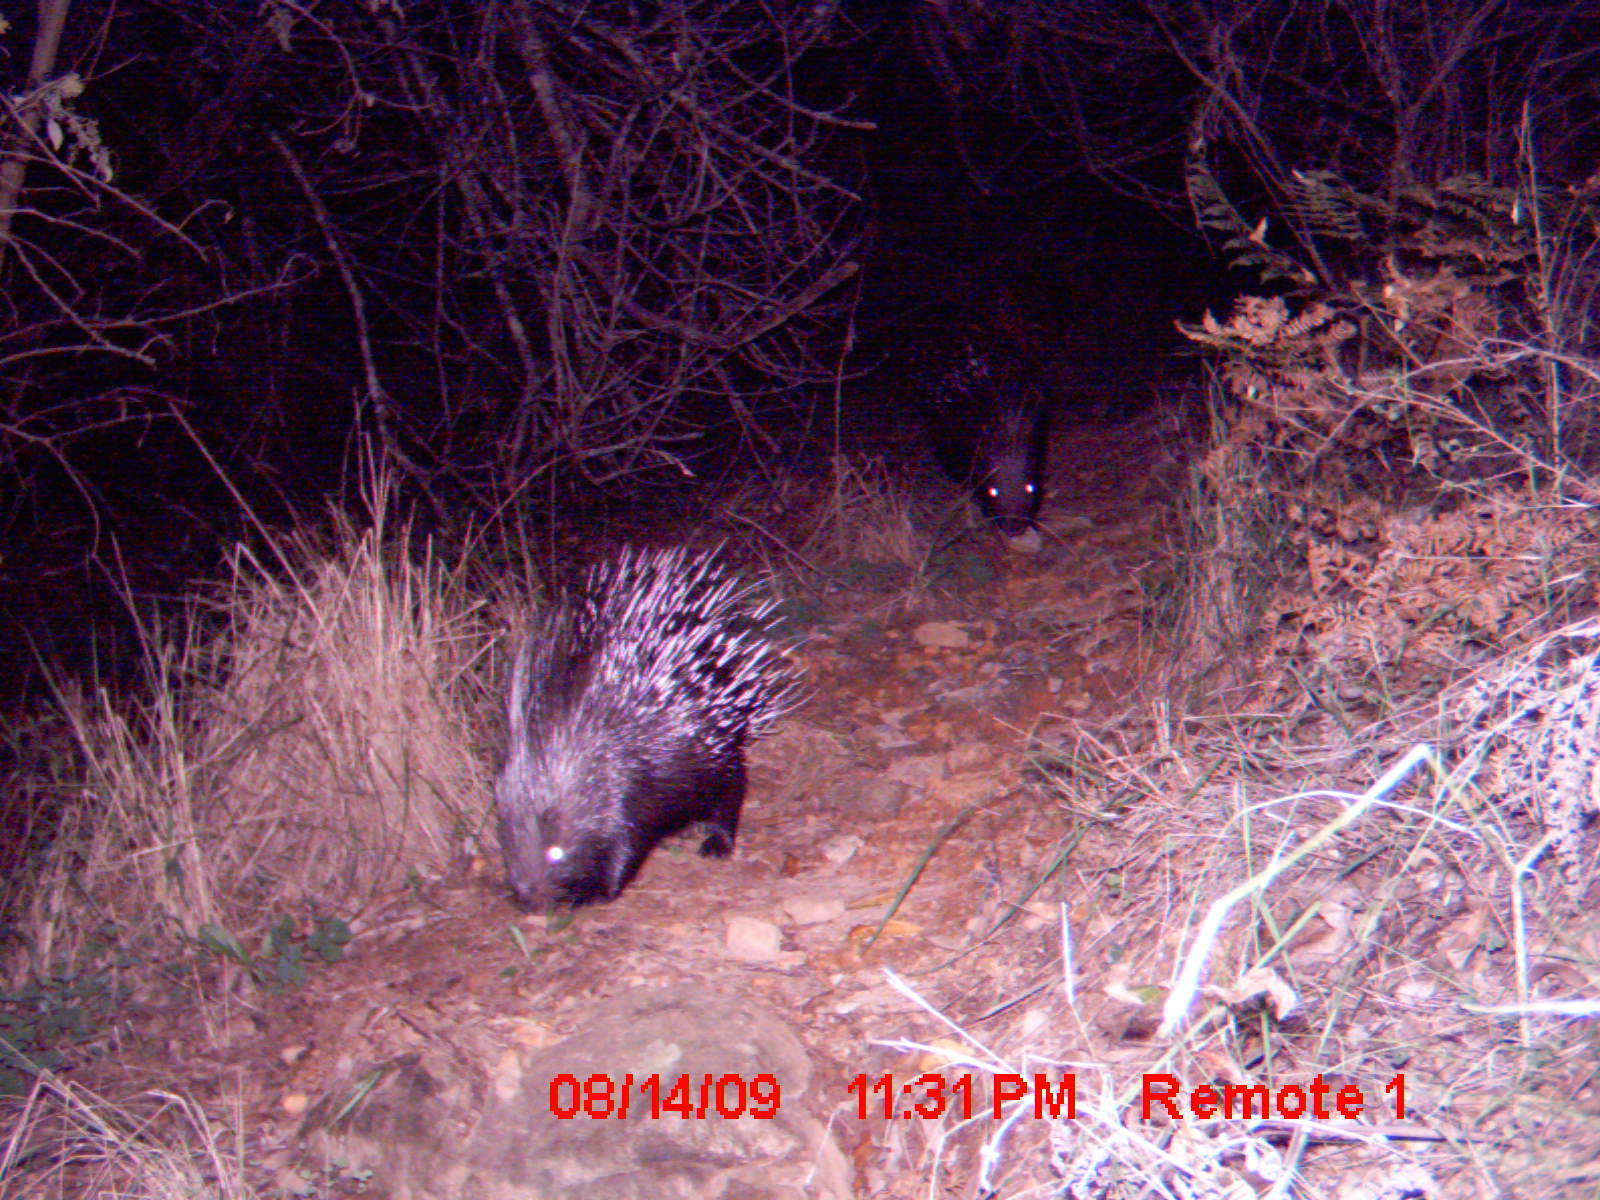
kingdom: Animalia
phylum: Chordata
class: Mammalia
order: Rodentia
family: Hystricidae
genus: Hystrix
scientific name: Hystrix africaeaustralis
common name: Cape porcupine
